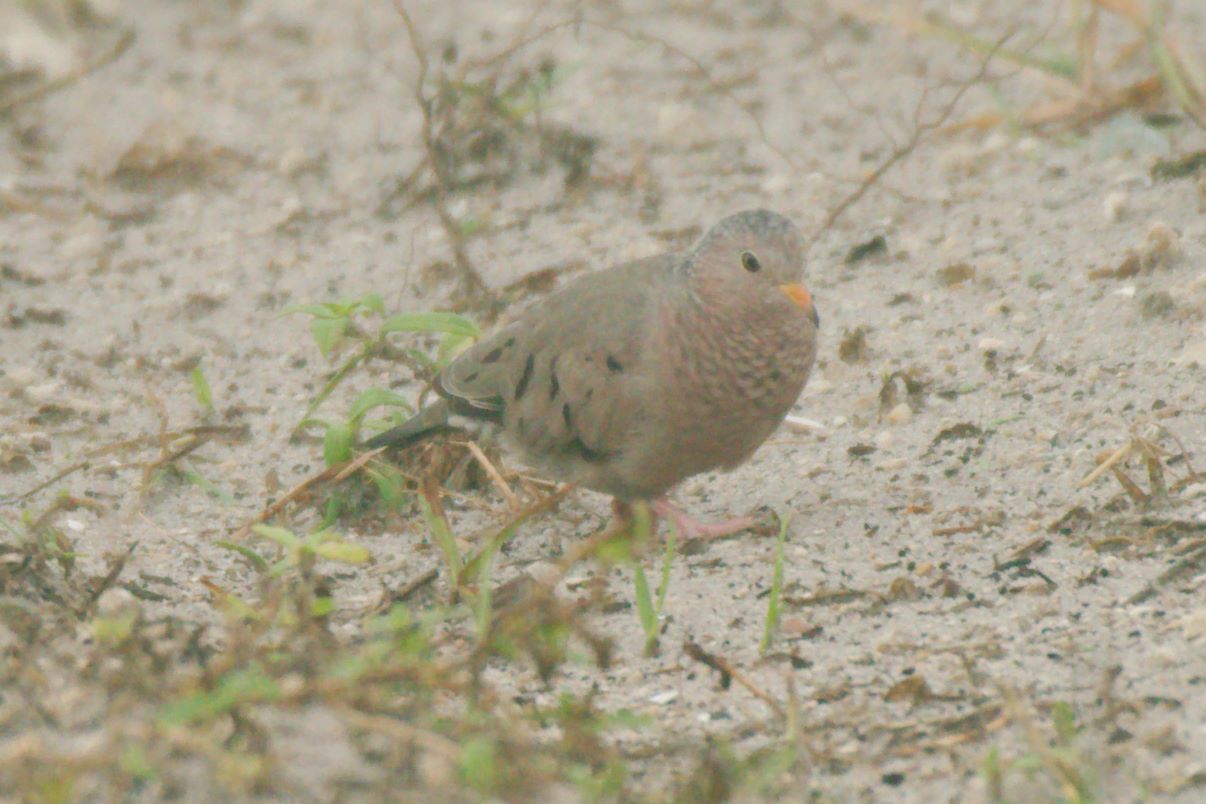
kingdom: Animalia
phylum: Chordata
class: Aves
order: Columbiformes
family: Columbidae
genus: Columbina
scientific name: Columbina passerina
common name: Common ground-dove
